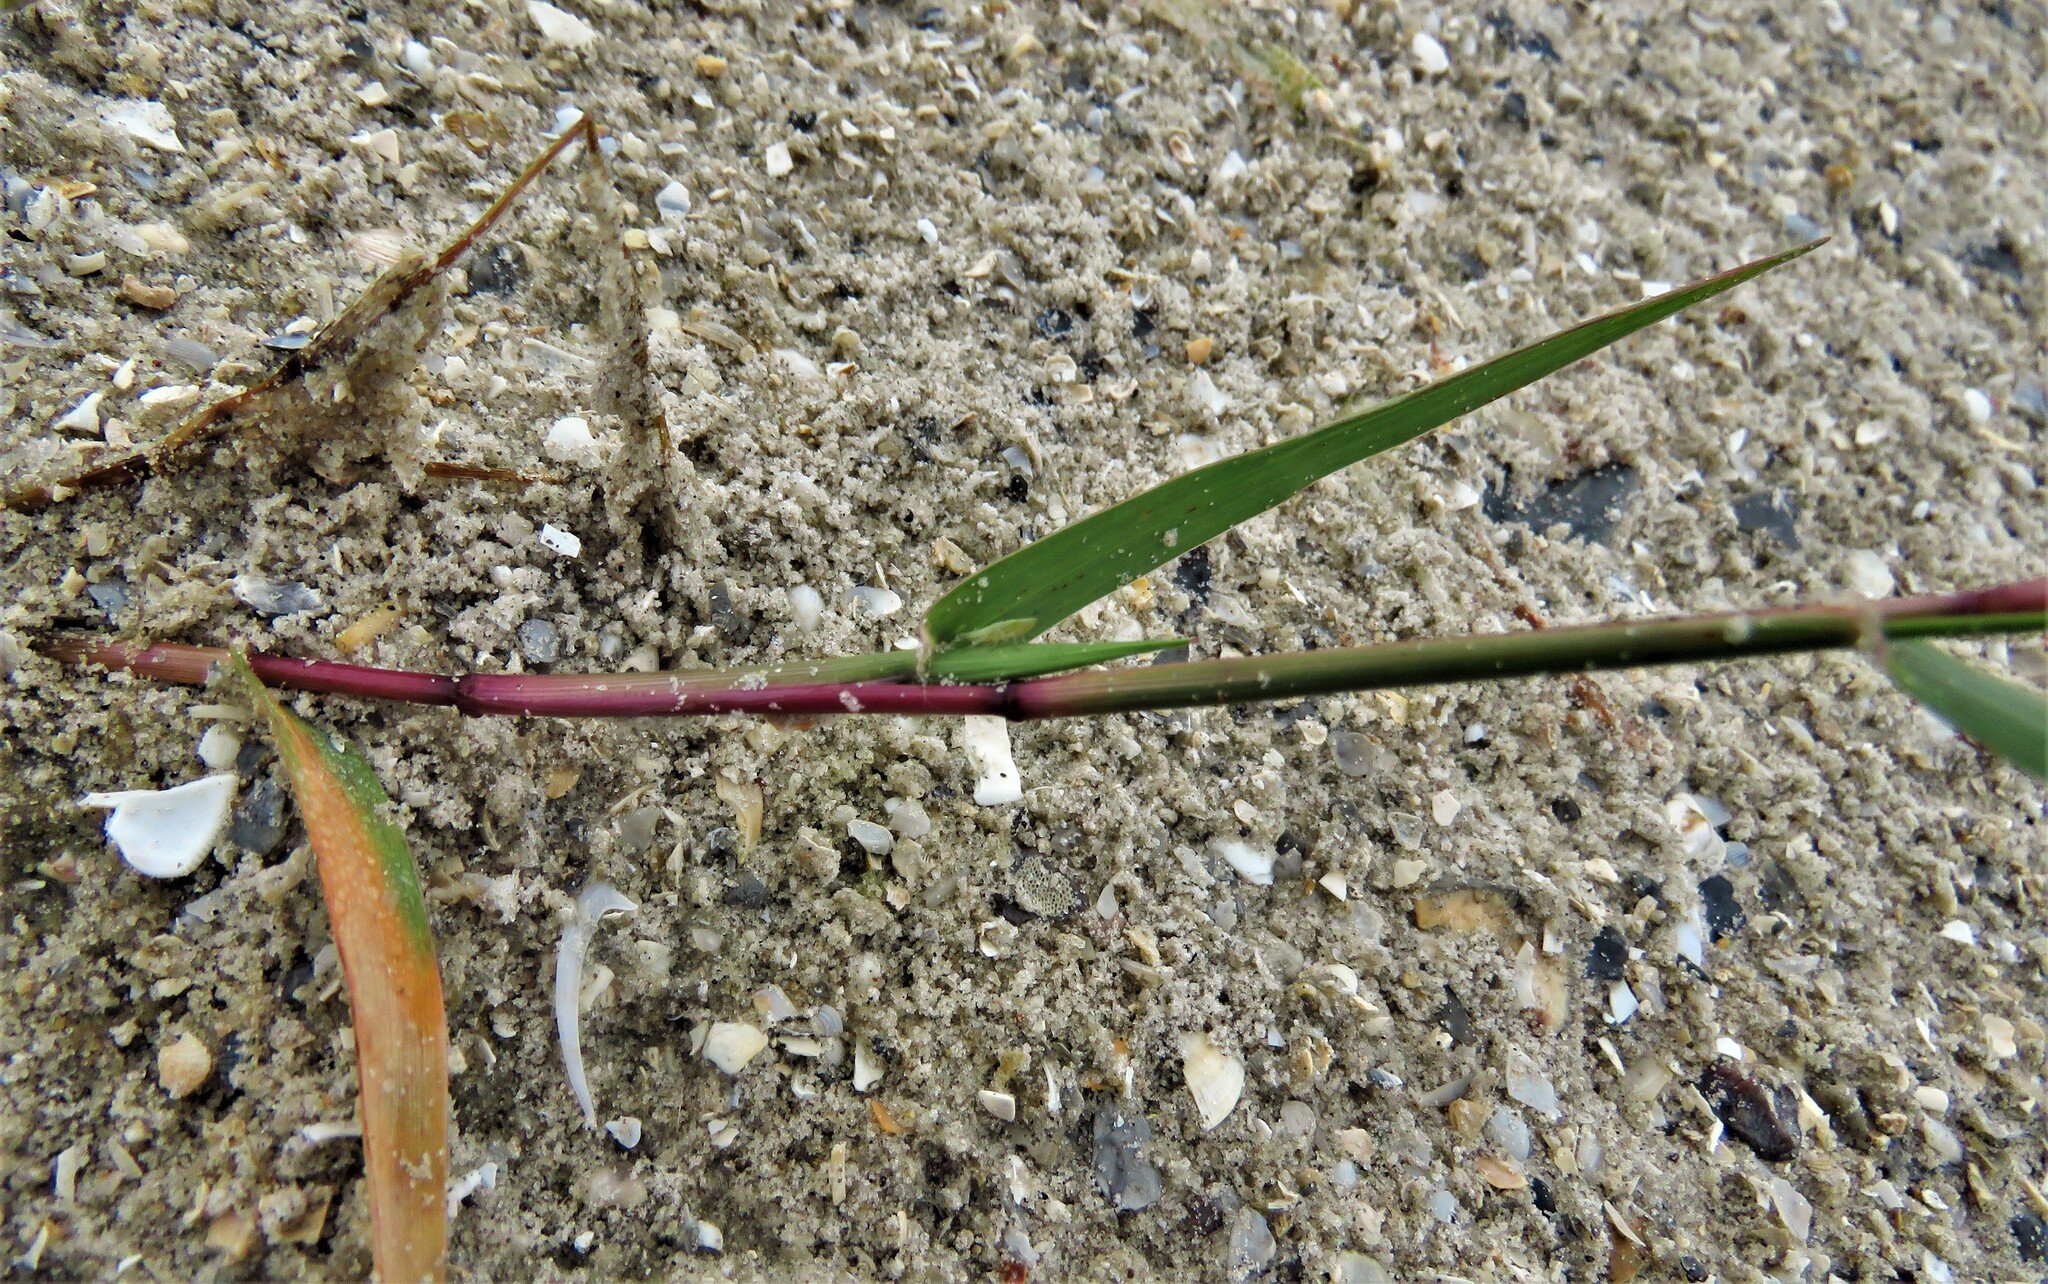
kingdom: Plantae
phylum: Tracheophyta
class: Liliopsida
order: Poales
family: Poaceae
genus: Sporobolus
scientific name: Sporobolus pyramidatus
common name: Whorled dropseed
